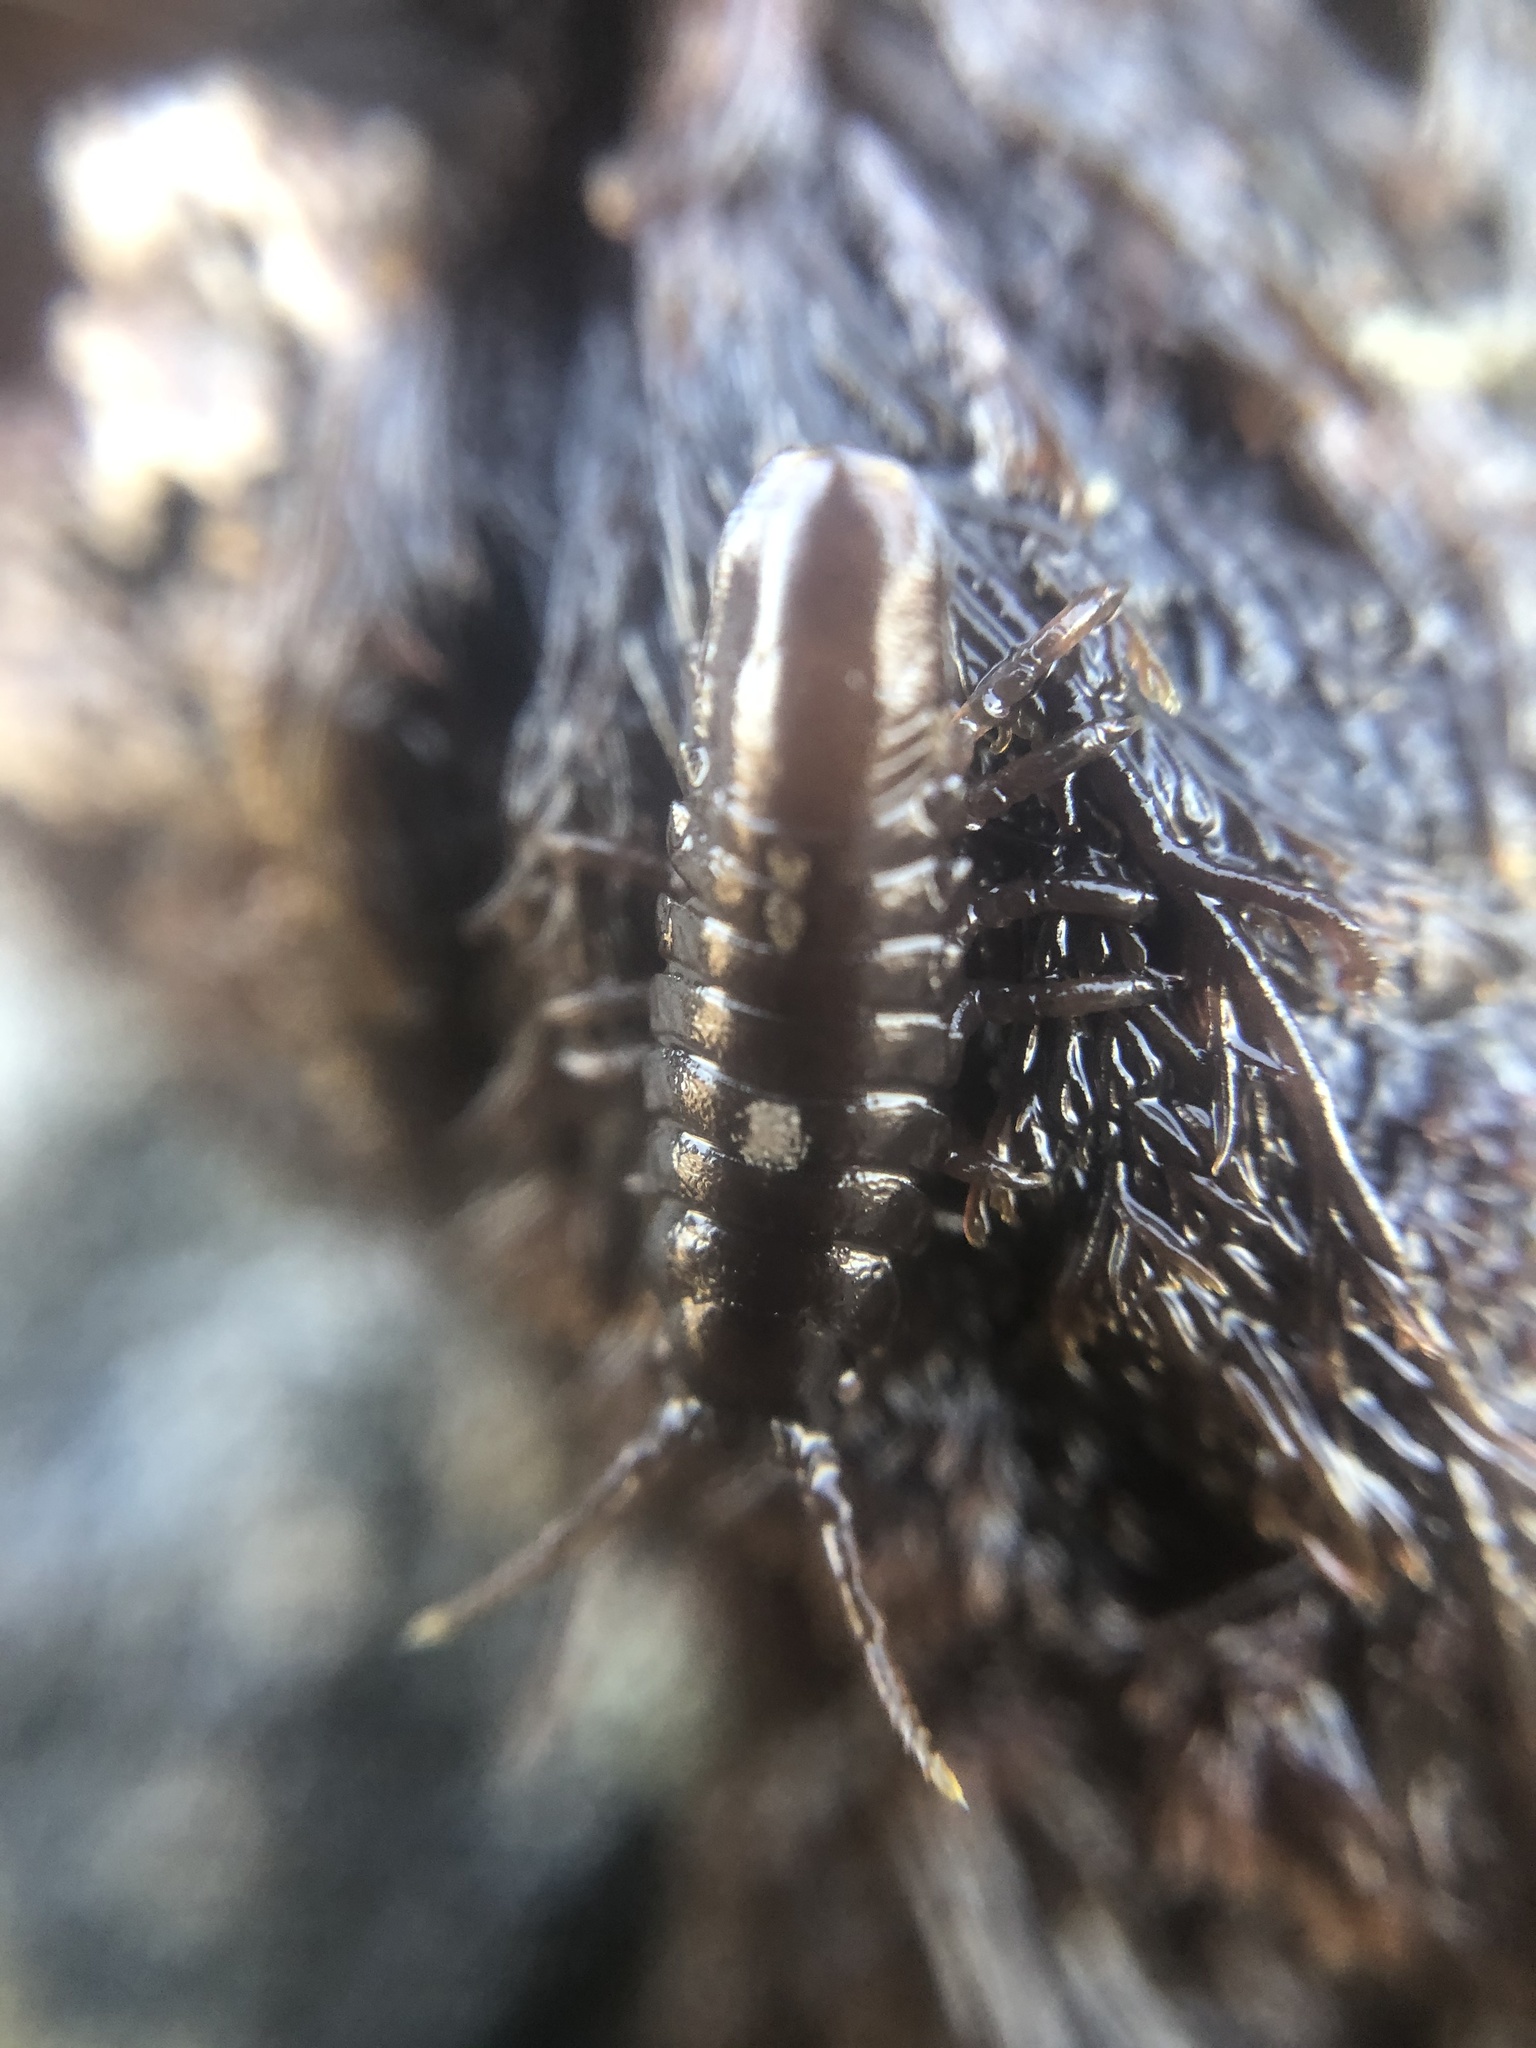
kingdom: Animalia
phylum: Arthropoda
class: Malacostraca
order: Isopoda
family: Idoteidae
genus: Pentidotea
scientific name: Pentidotea wosnesenskii
